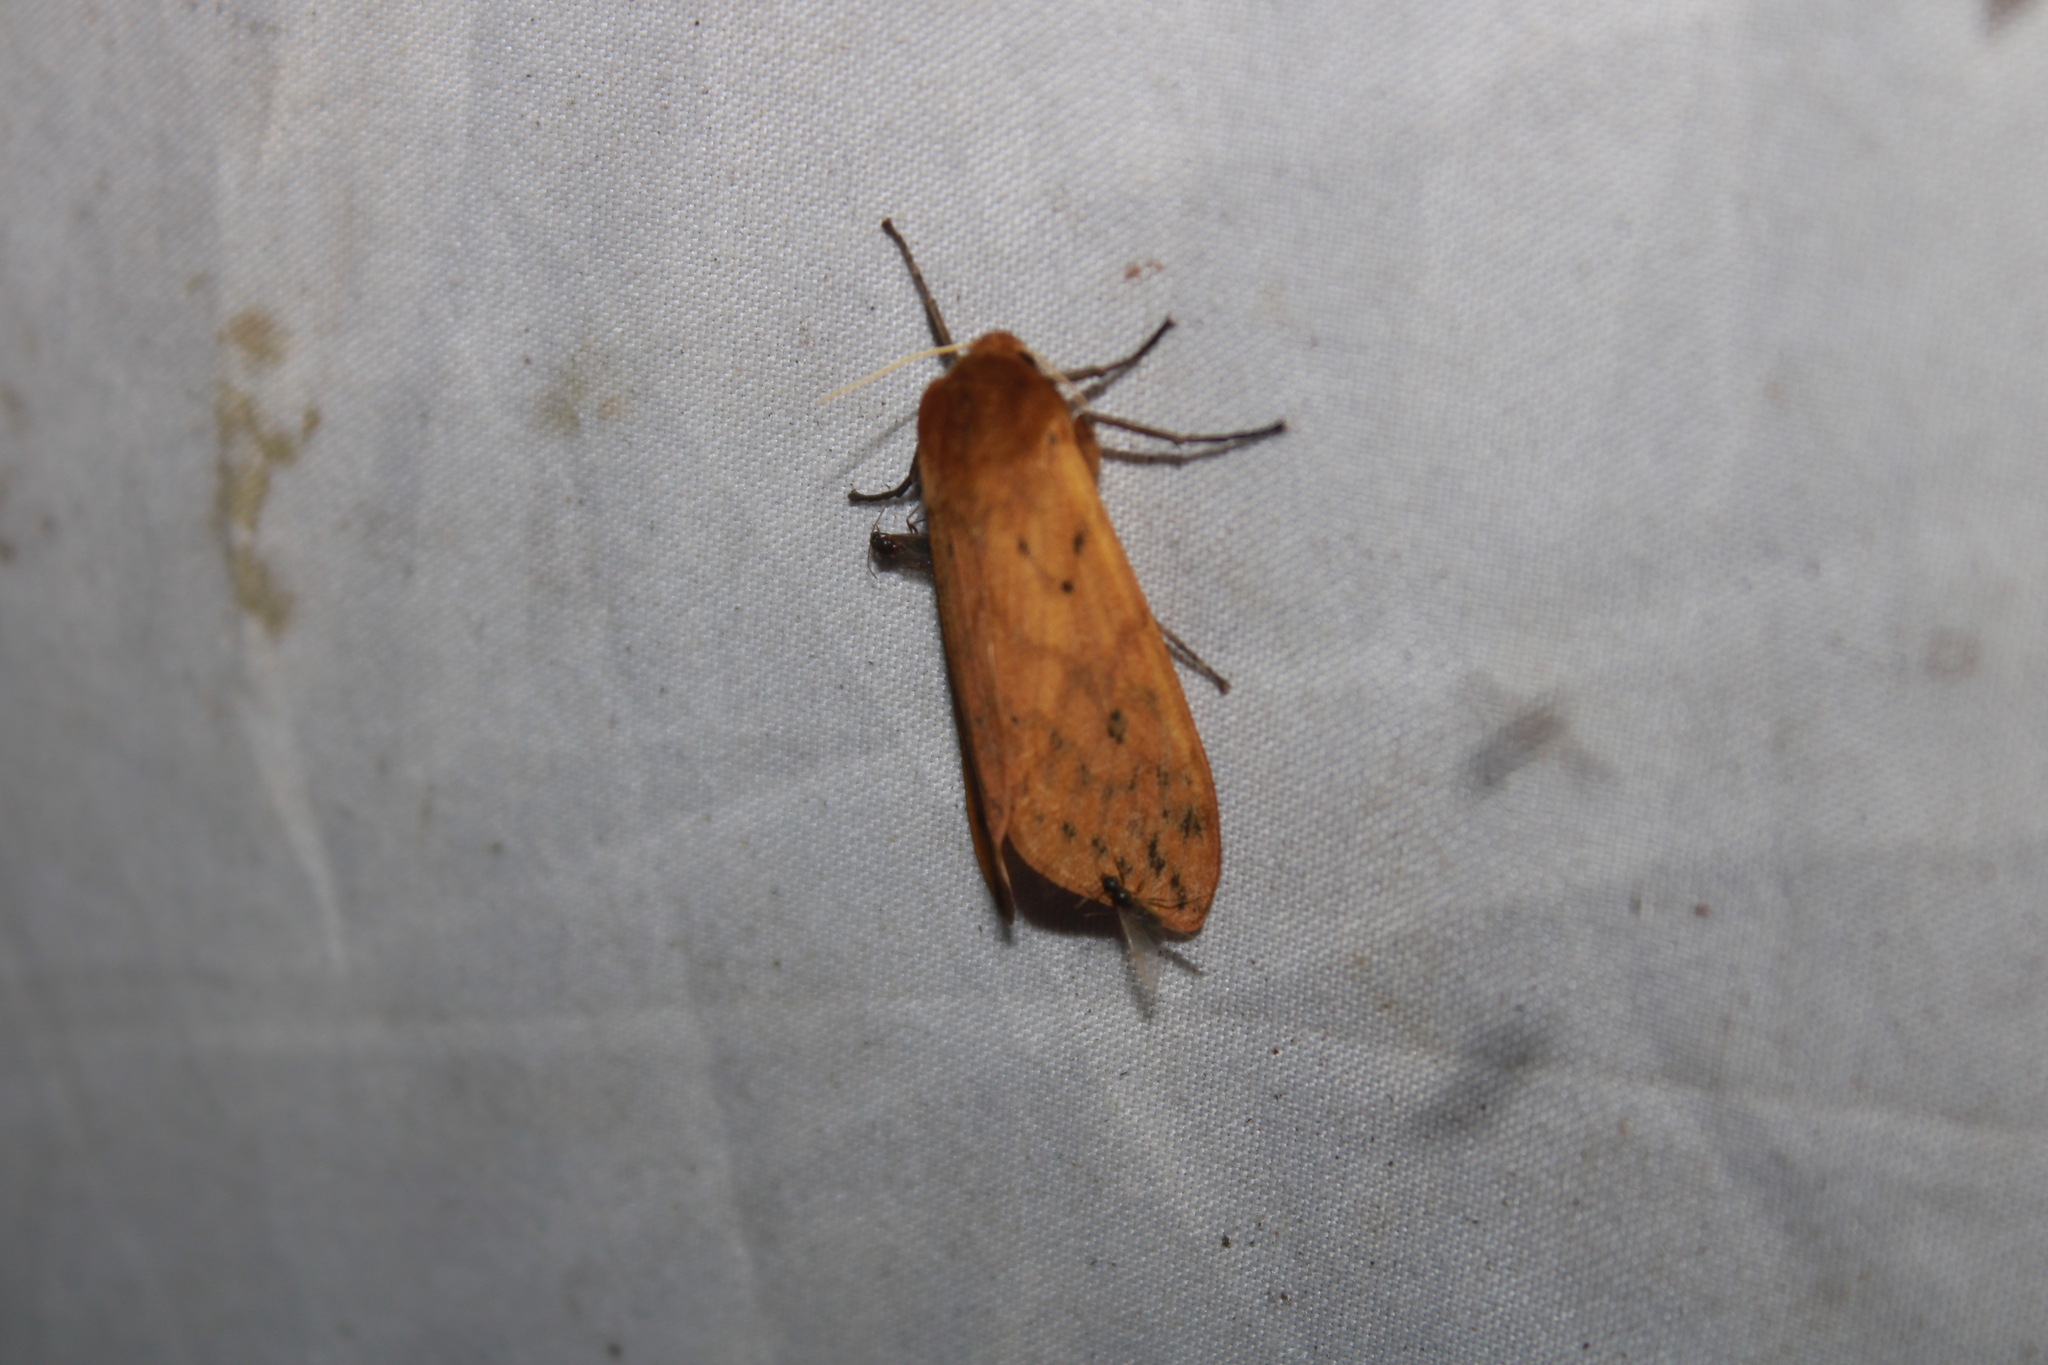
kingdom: Animalia
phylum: Arthropoda
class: Insecta
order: Lepidoptera
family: Erebidae
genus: Pyrrharctia
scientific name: Pyrrharctia isabella
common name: Isabella tiger moth
